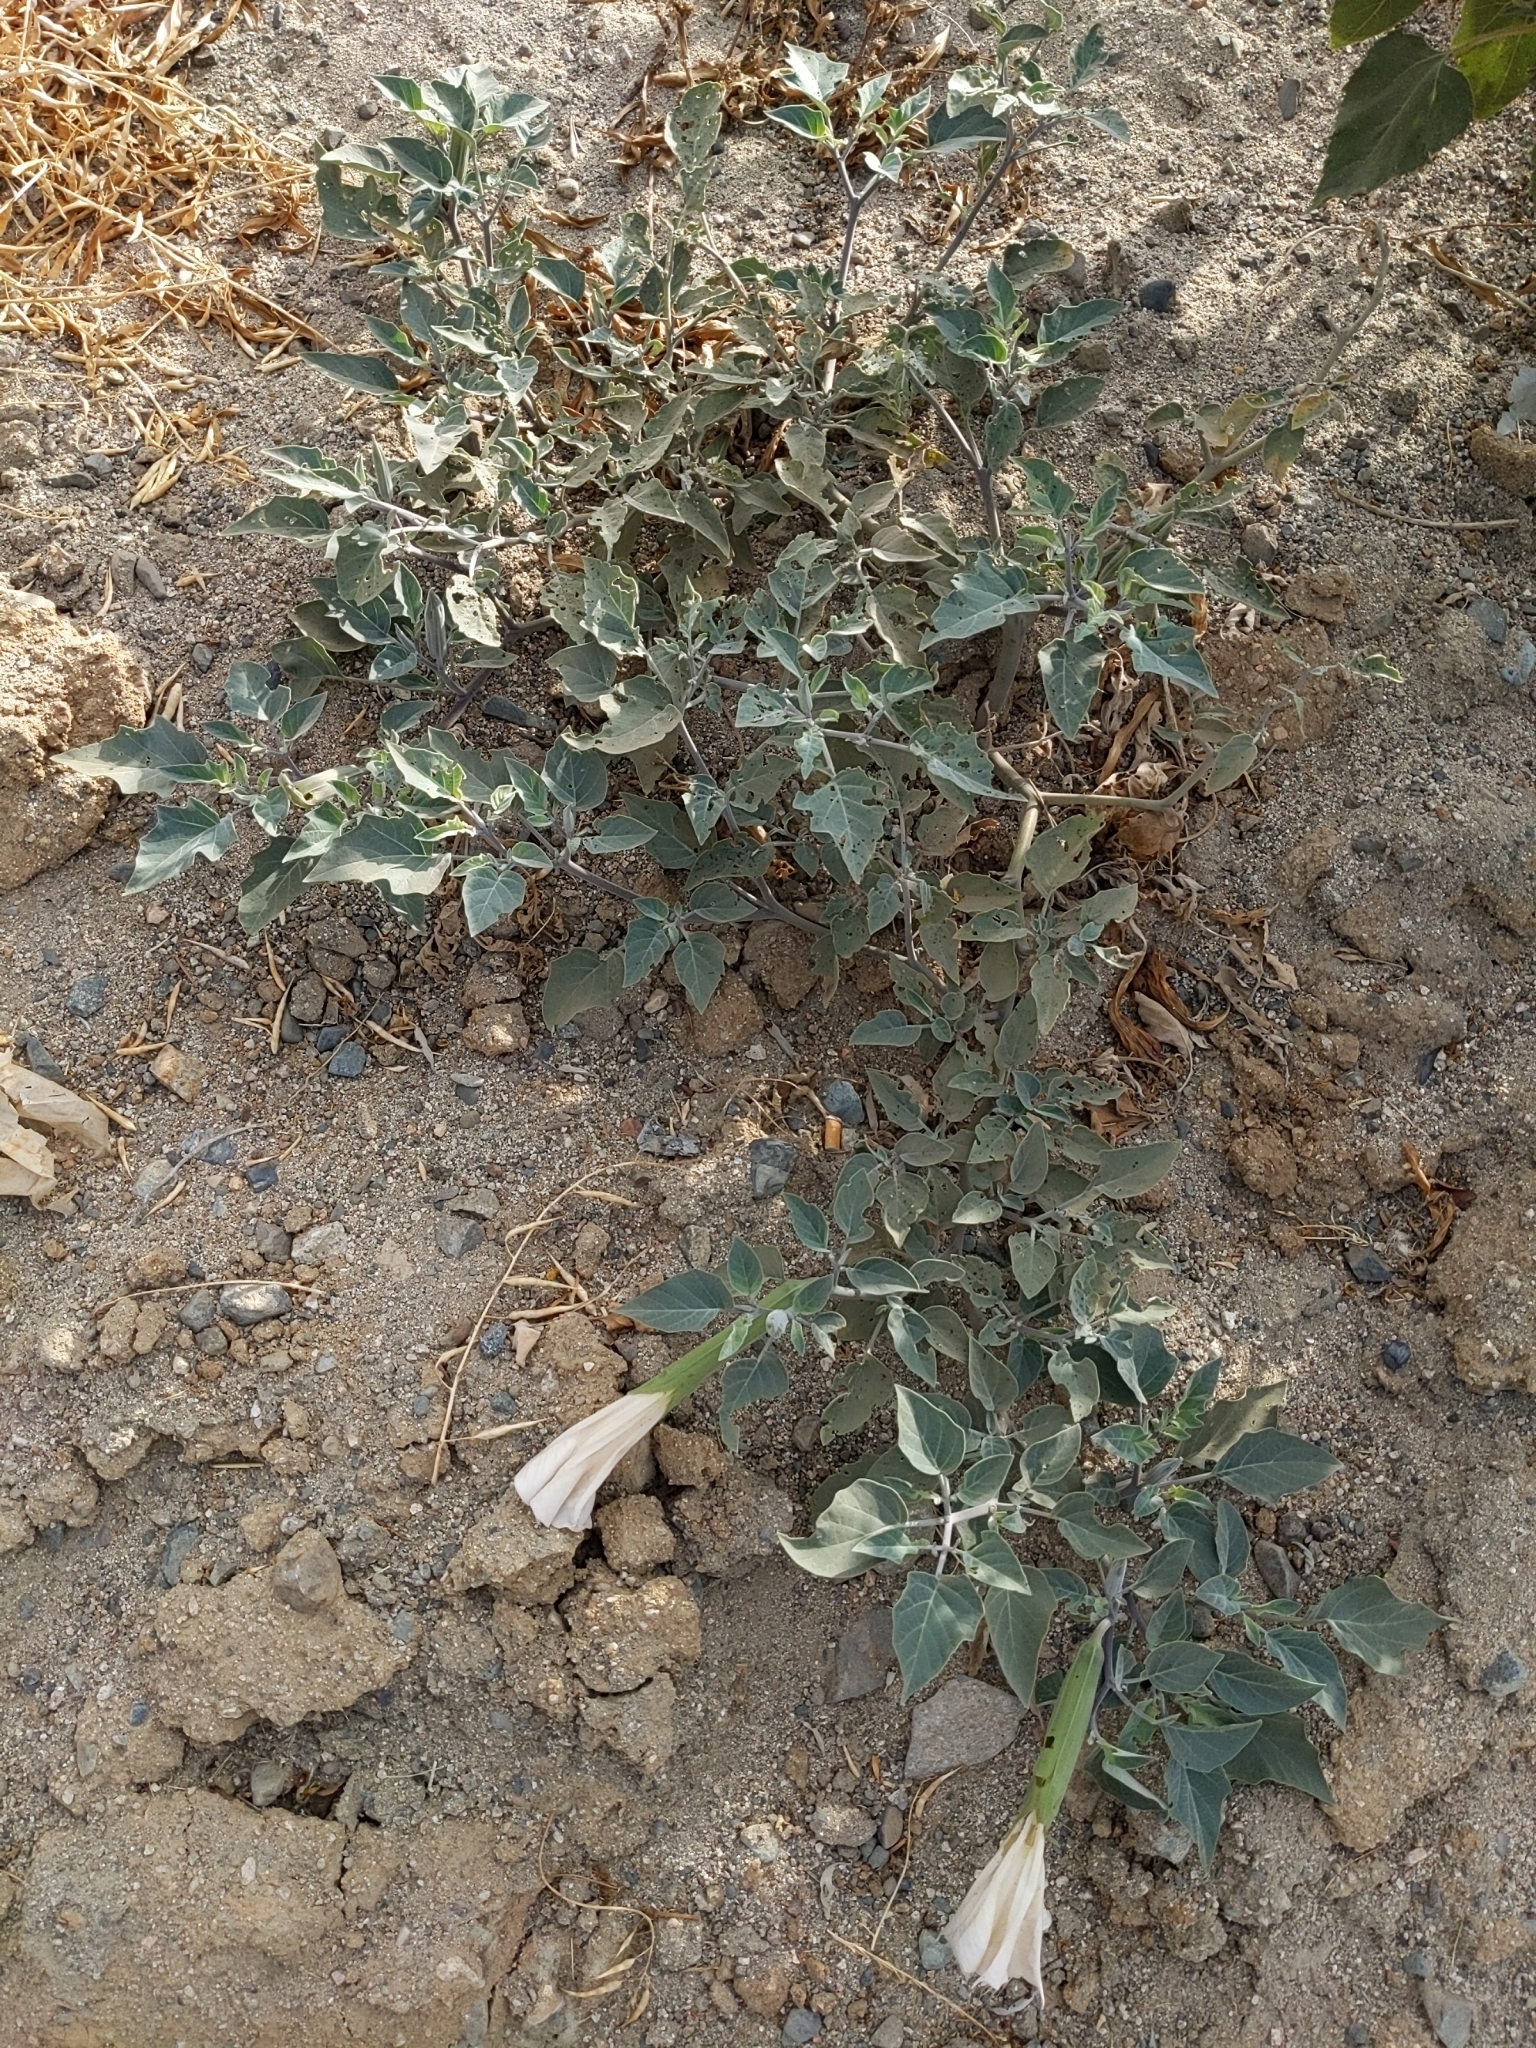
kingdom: Plantae
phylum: Tracheophyta
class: Magnoliopsida
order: Solanales
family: Solanaceae
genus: Datura
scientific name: Datura wrightii
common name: Sacred thorn-apple
